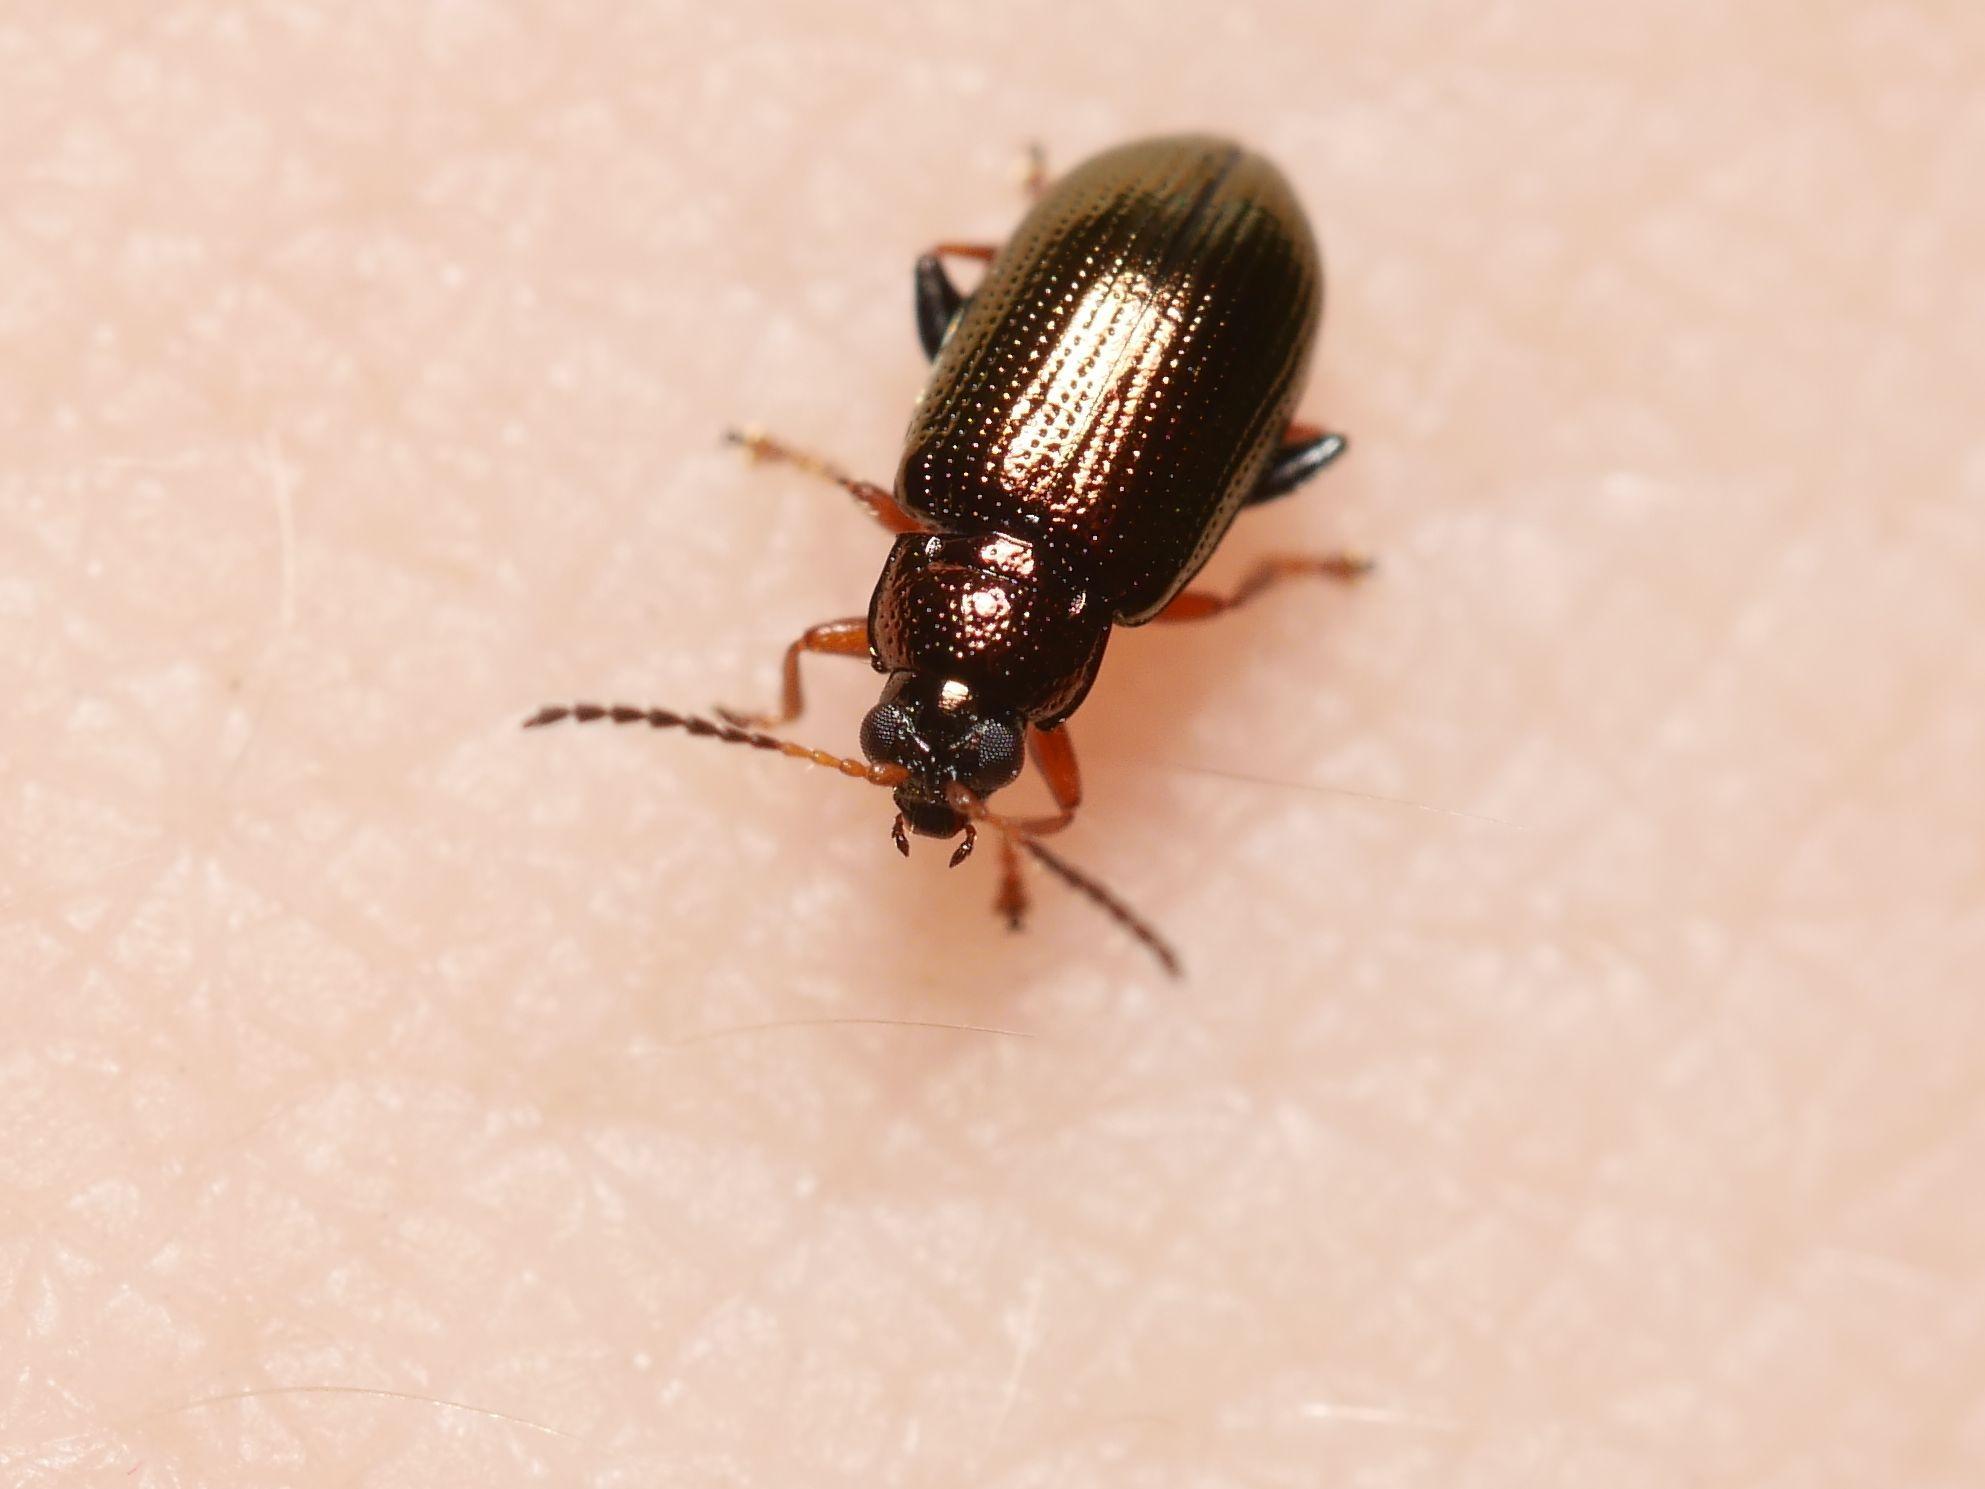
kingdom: Animalia
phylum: Arthropoda
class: Insecta
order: Coleoptera
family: Chrysomelidae
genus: Crepidodera
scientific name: Crepidodera plutus
